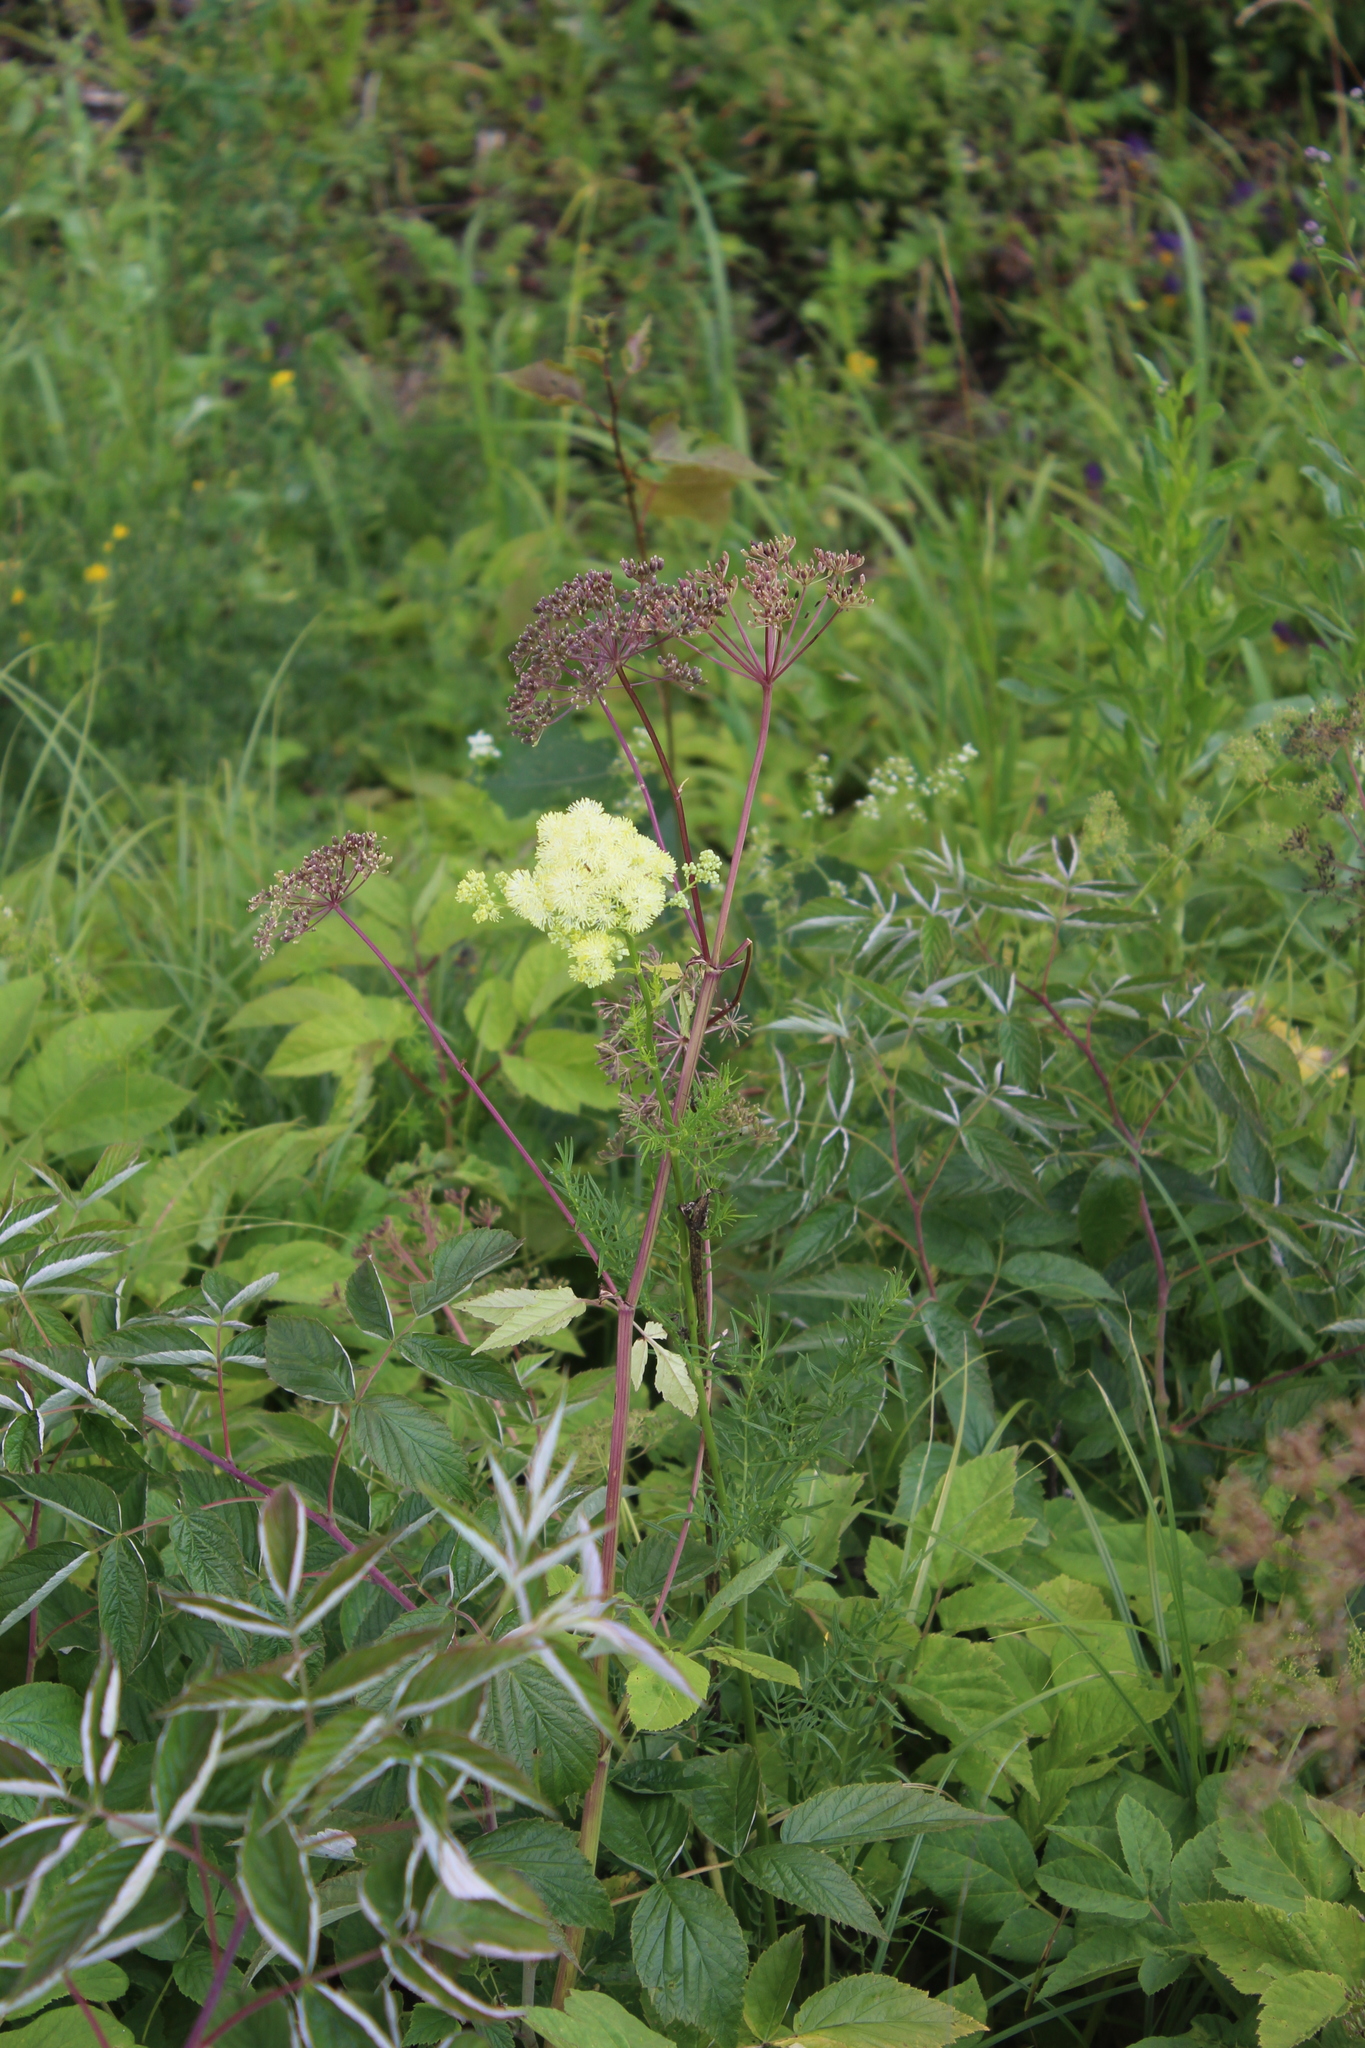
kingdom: Plantae
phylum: Tracheophyta
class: Magnoliopsida
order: Ranunculales
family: Ranunculaceae
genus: Thalictrum
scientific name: Thalictrum lucidum
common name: Shining meadow-rue
